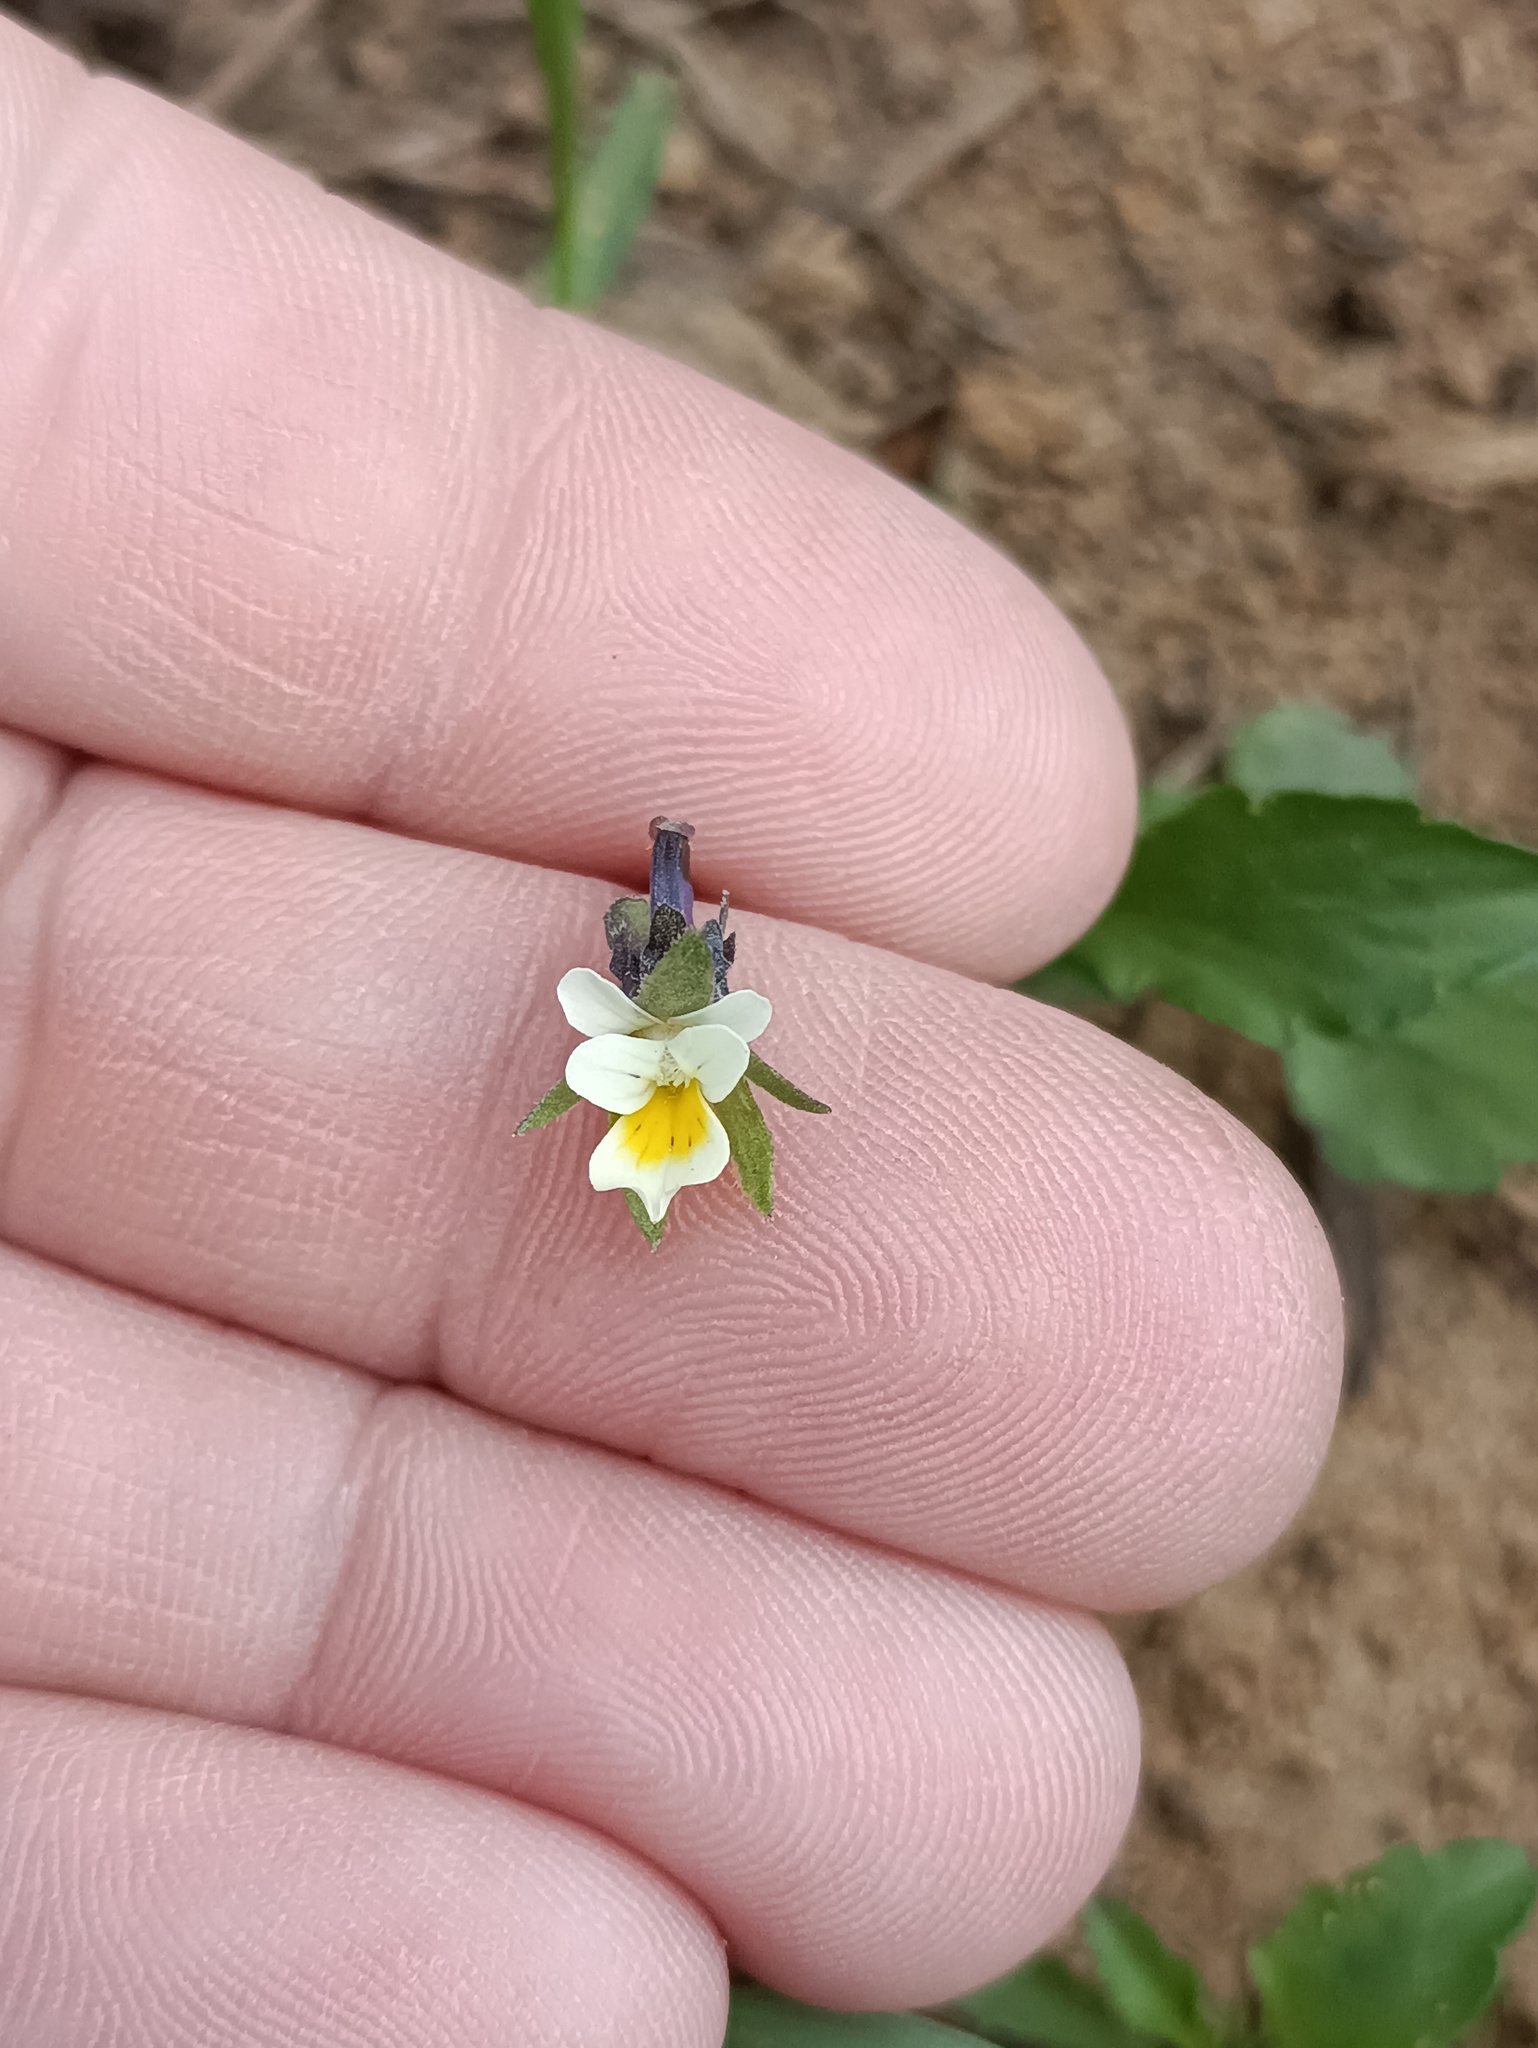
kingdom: Plantae
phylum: Tracheophyta
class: Magnoliopsida
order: Malpighiales
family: Violaceae
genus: Viola
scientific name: Viola arvensis
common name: Field pansy
